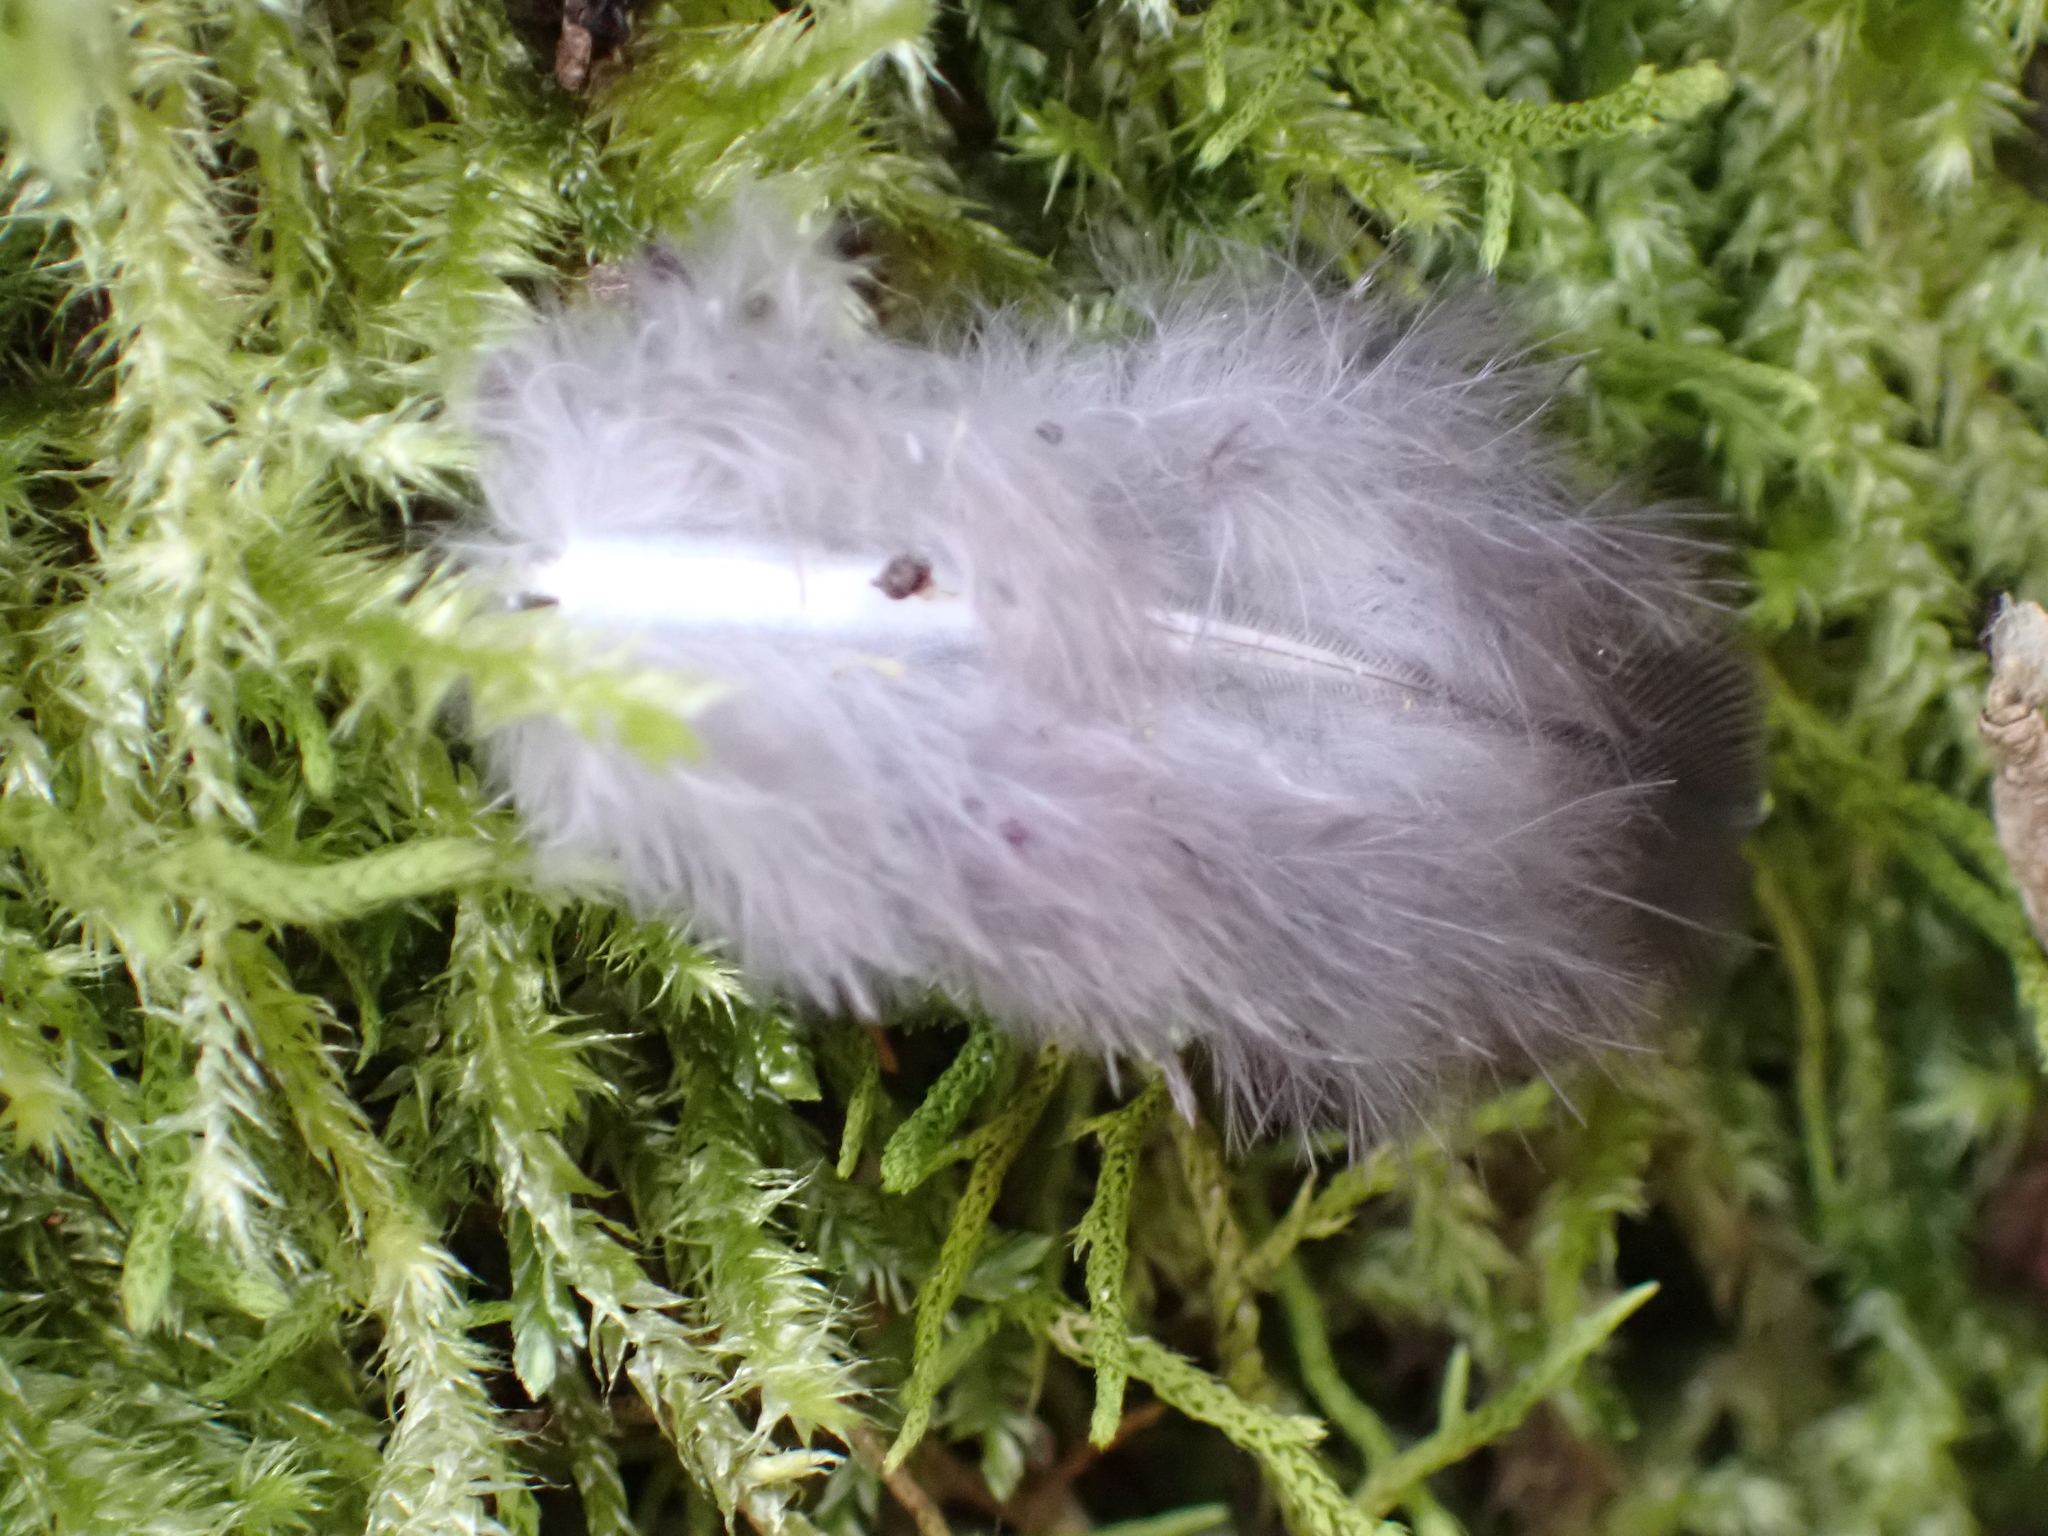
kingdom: Animalia
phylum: Chordata
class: Aves
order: Columbiformes
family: Columbidae
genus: Columba
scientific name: Columba guinea
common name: Speckled pigeon
